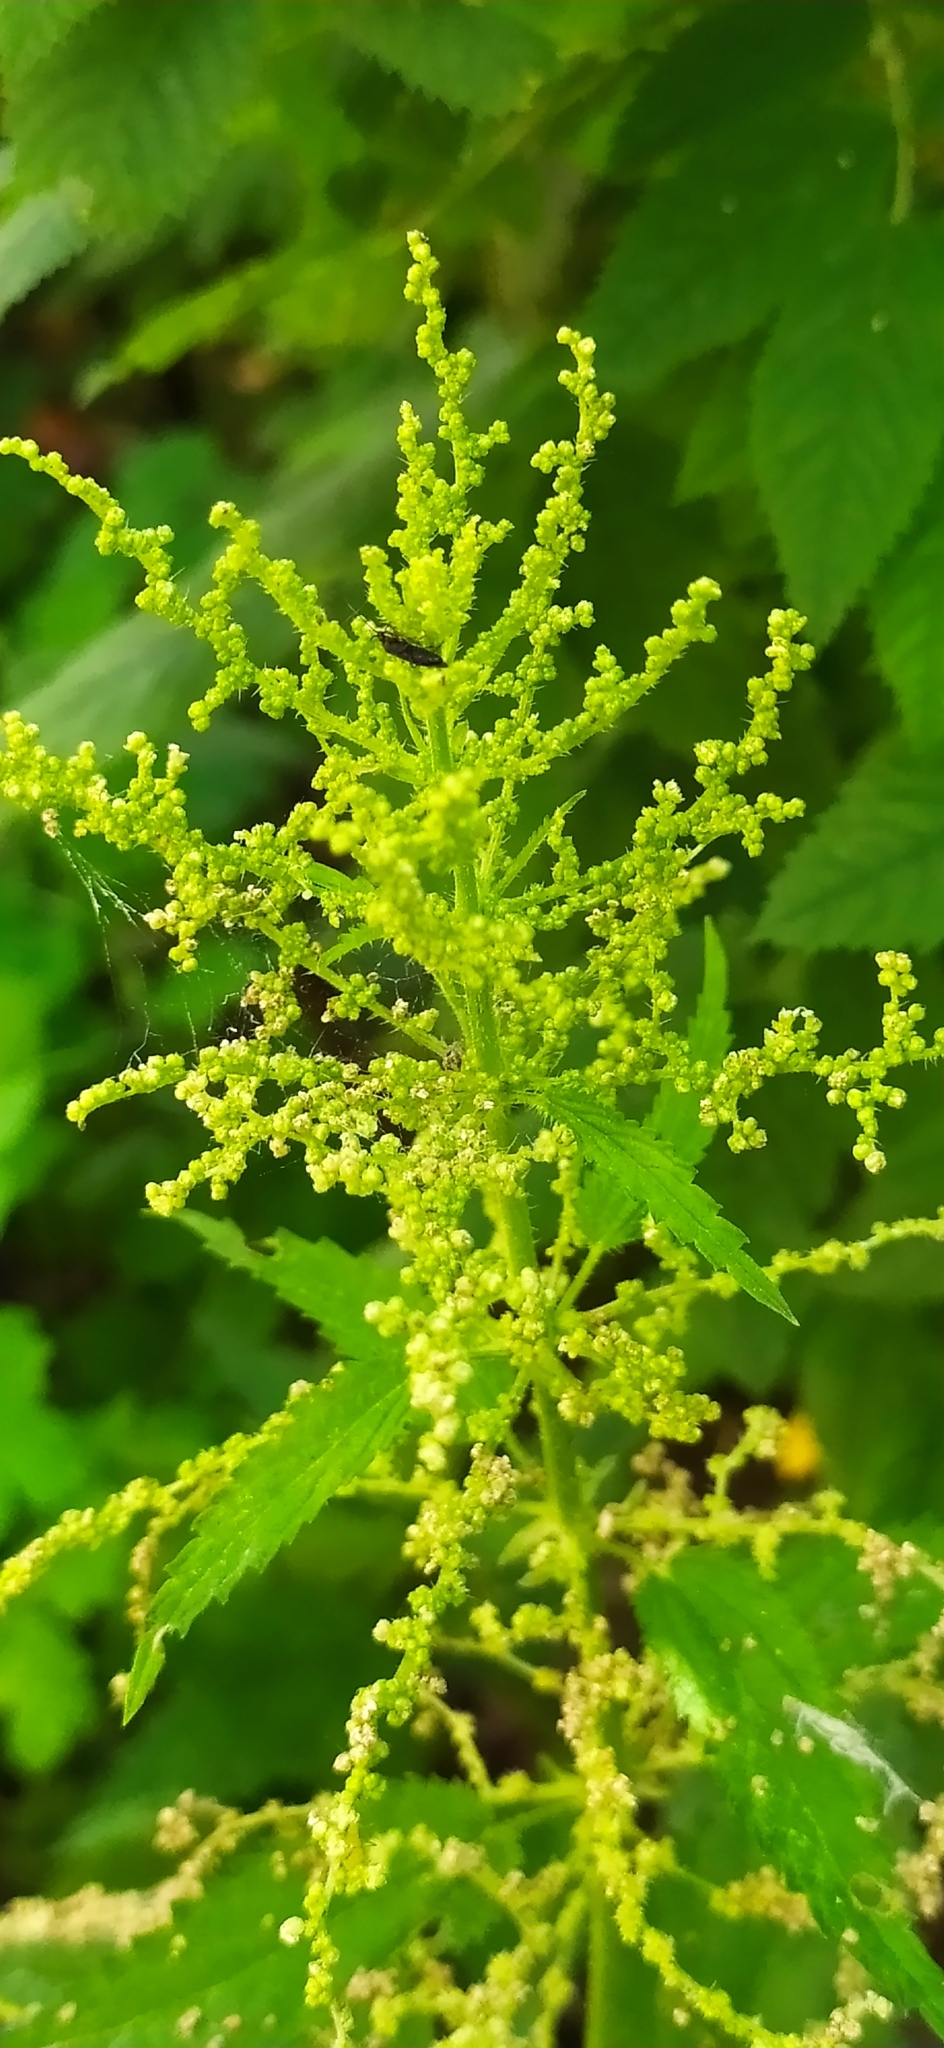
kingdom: Plantae
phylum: Tracheophyta
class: Magnoliopsida
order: Rosales
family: Urticaceae
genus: Urtica
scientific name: Urtica dioica
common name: Common nettle
